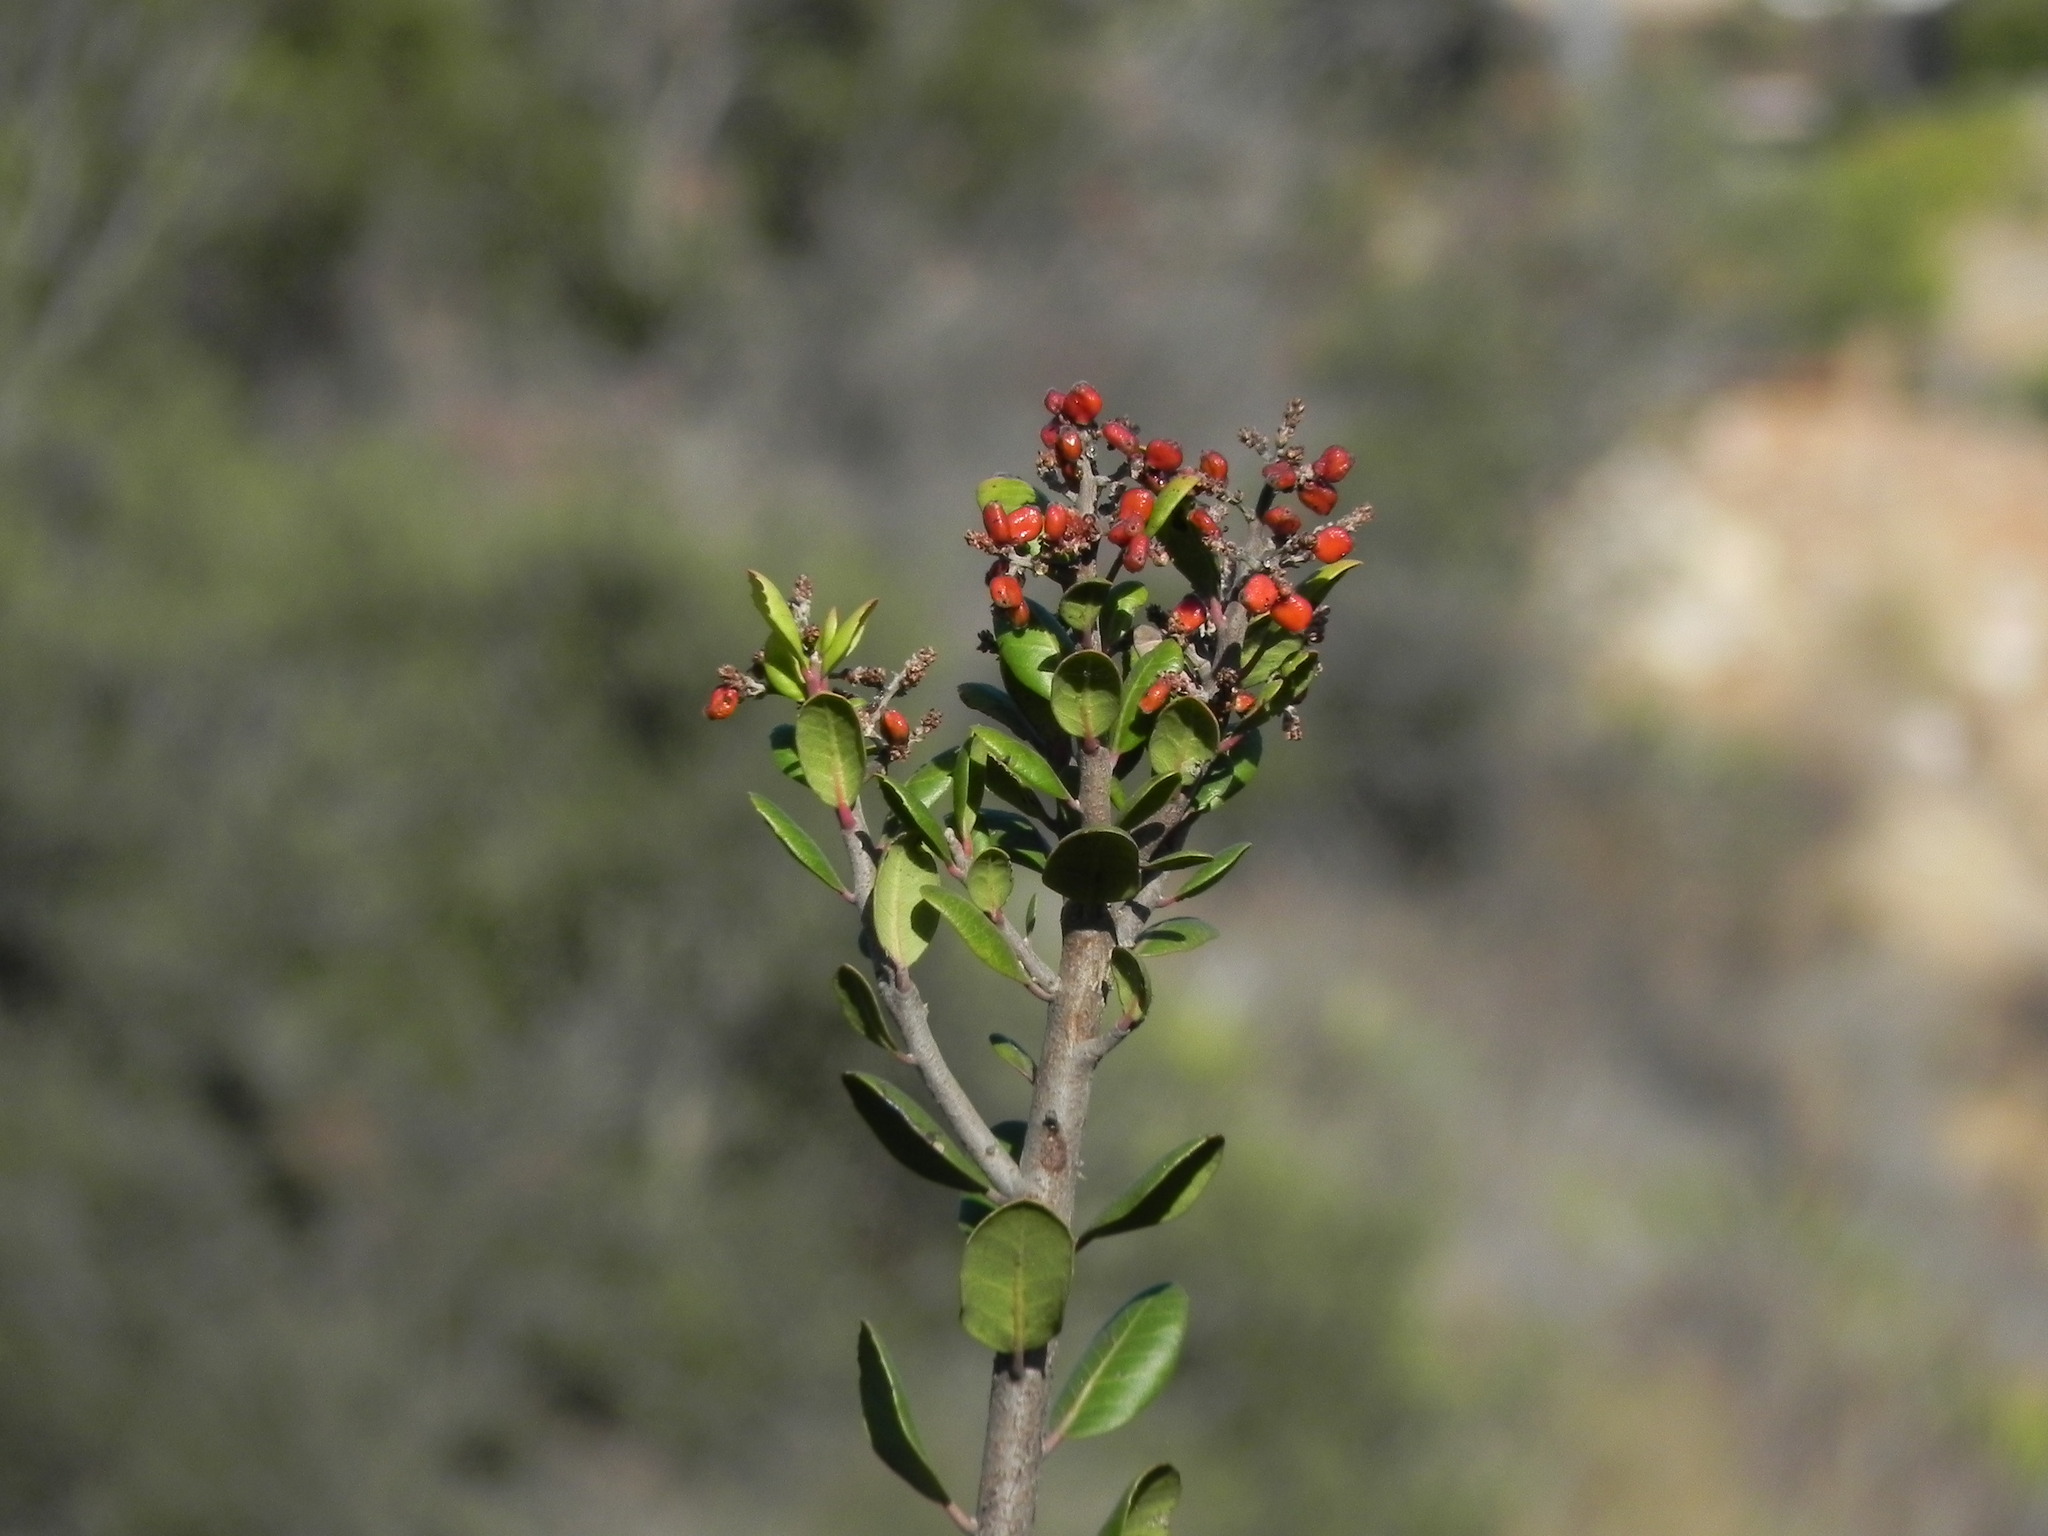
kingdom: Plantae
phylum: Tracheophyta
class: Magnoliopsida
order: Sapindales
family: Anacardiaceae
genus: Rhus
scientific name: Rhus integrifolia
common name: Lemonade sumac
